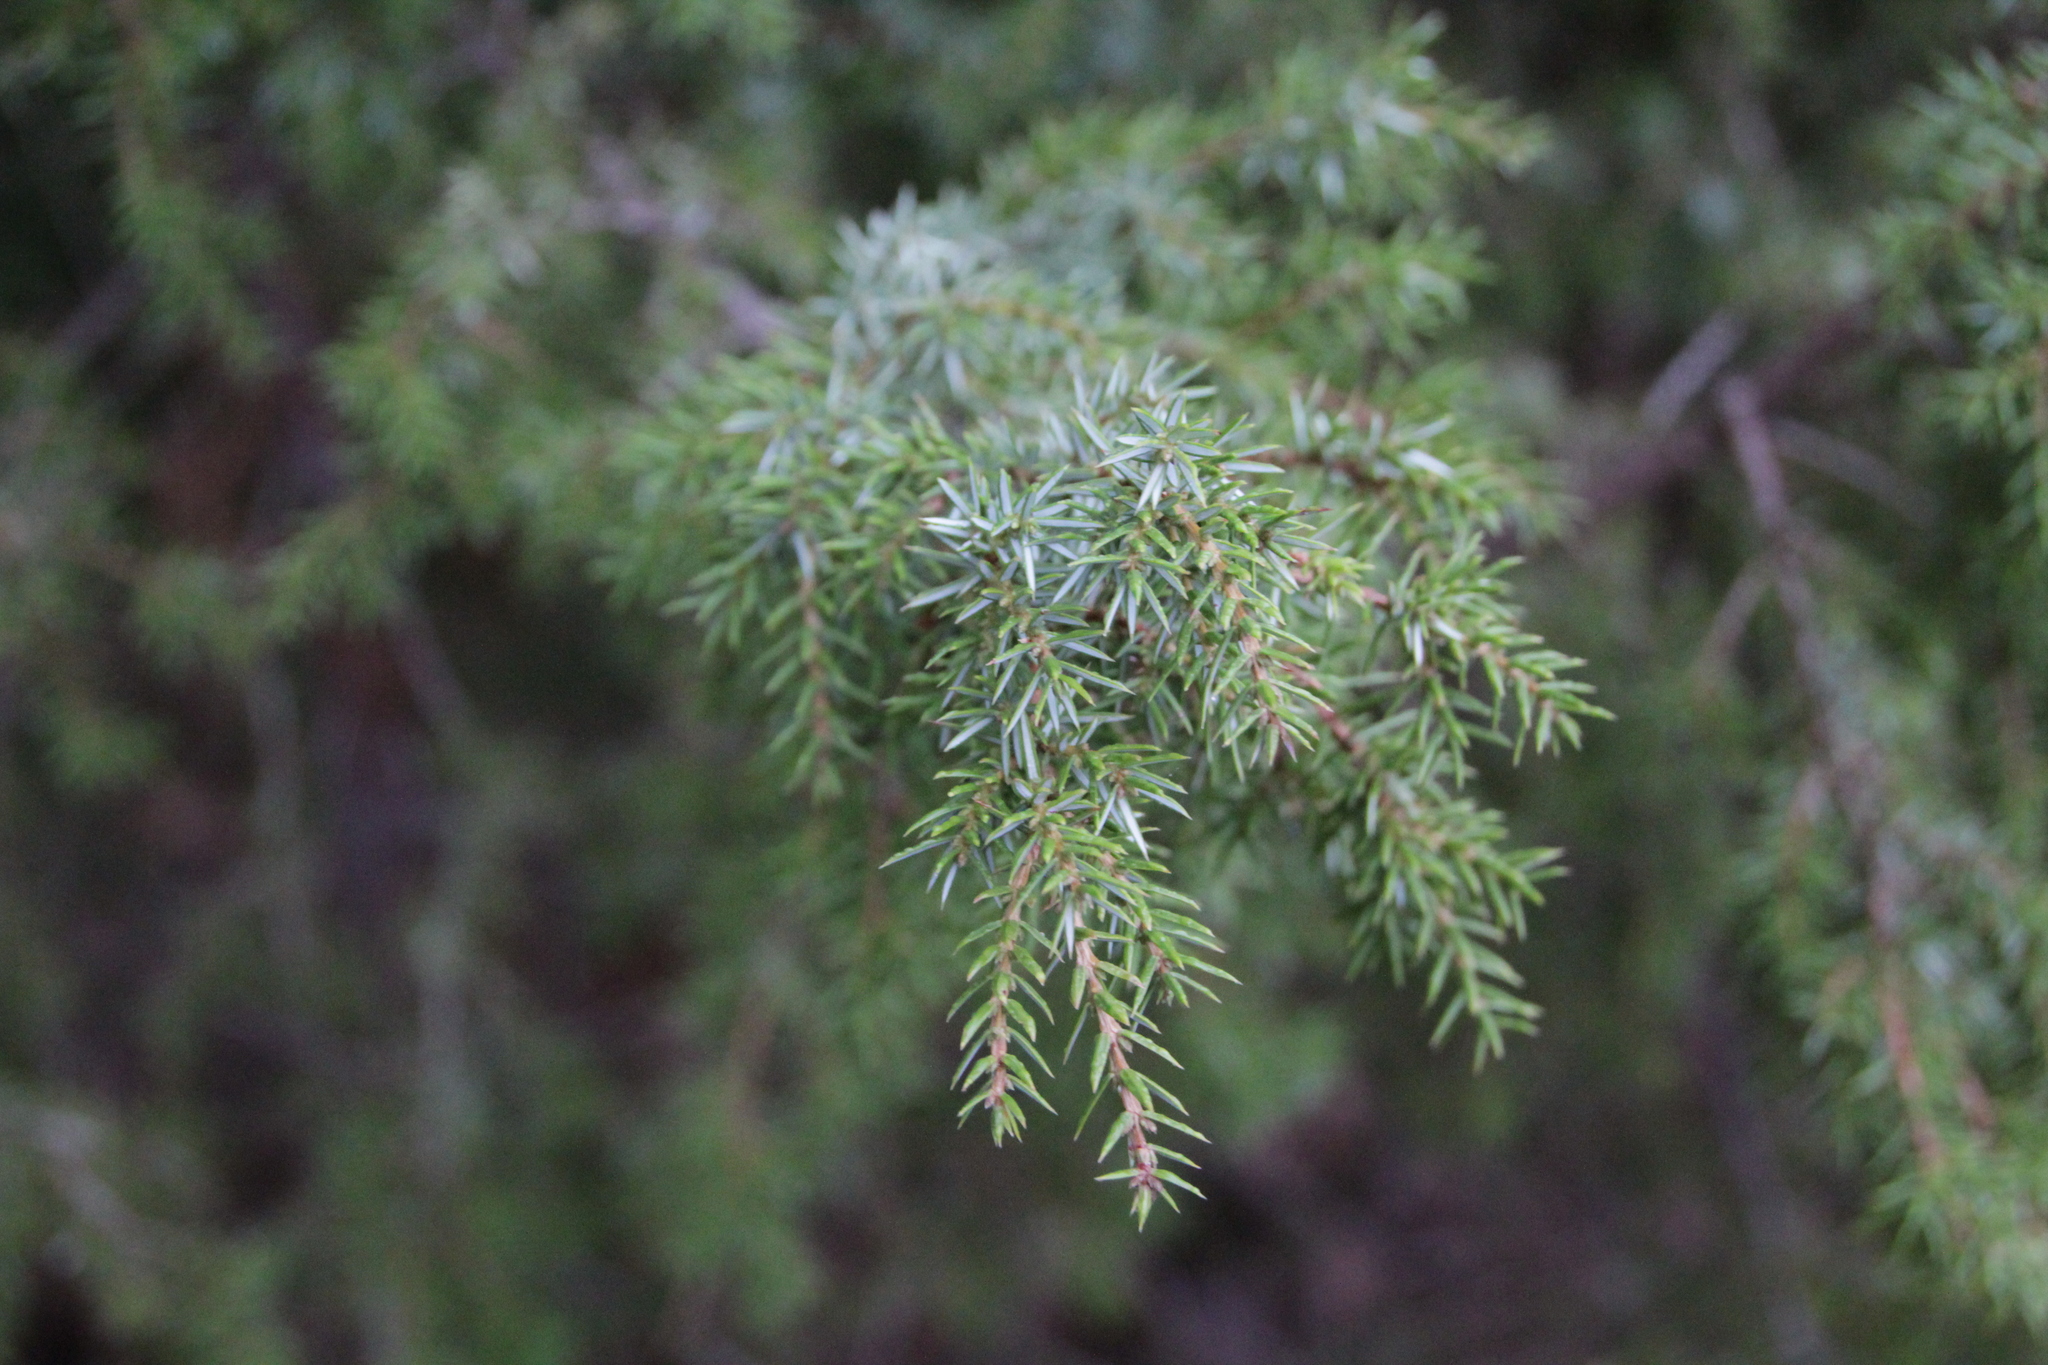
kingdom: Plantae
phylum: Tracheophyta
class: Pinopsida
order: Pinales
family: Cupressaceae
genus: Juniperus
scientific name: Juniperus communis
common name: Common juniper
